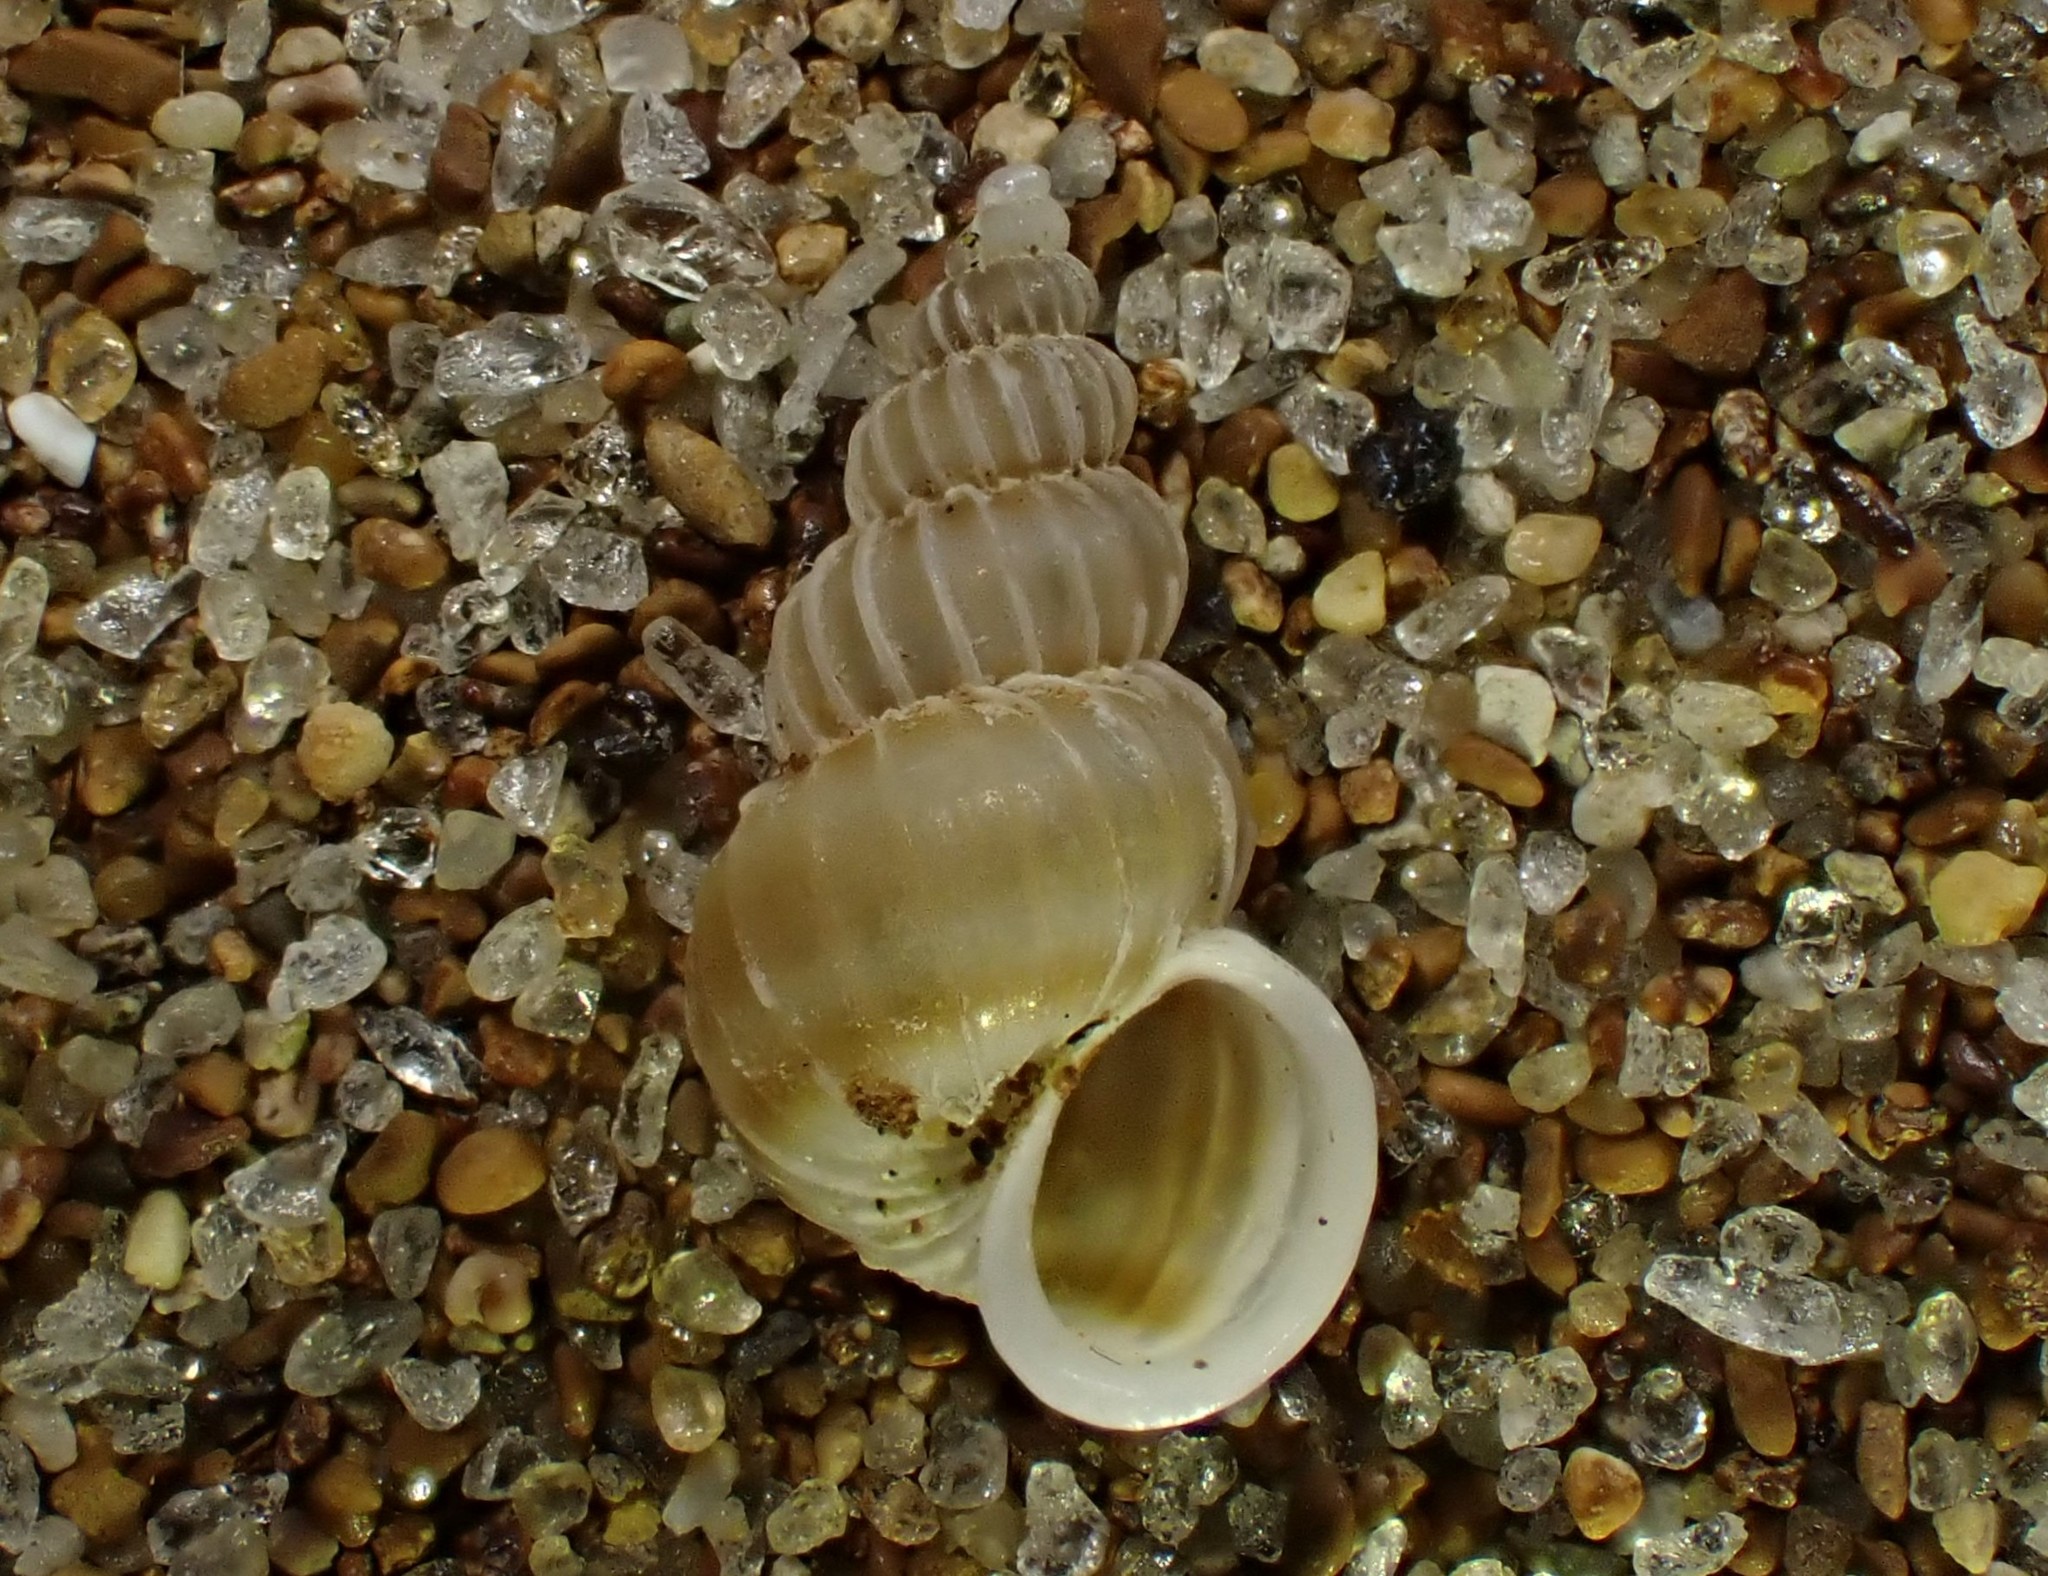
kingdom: Animalia
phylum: Mollusca
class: Gastropoda
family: Epitoniidae
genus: Epitonium
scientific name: Epitonium tenellum
